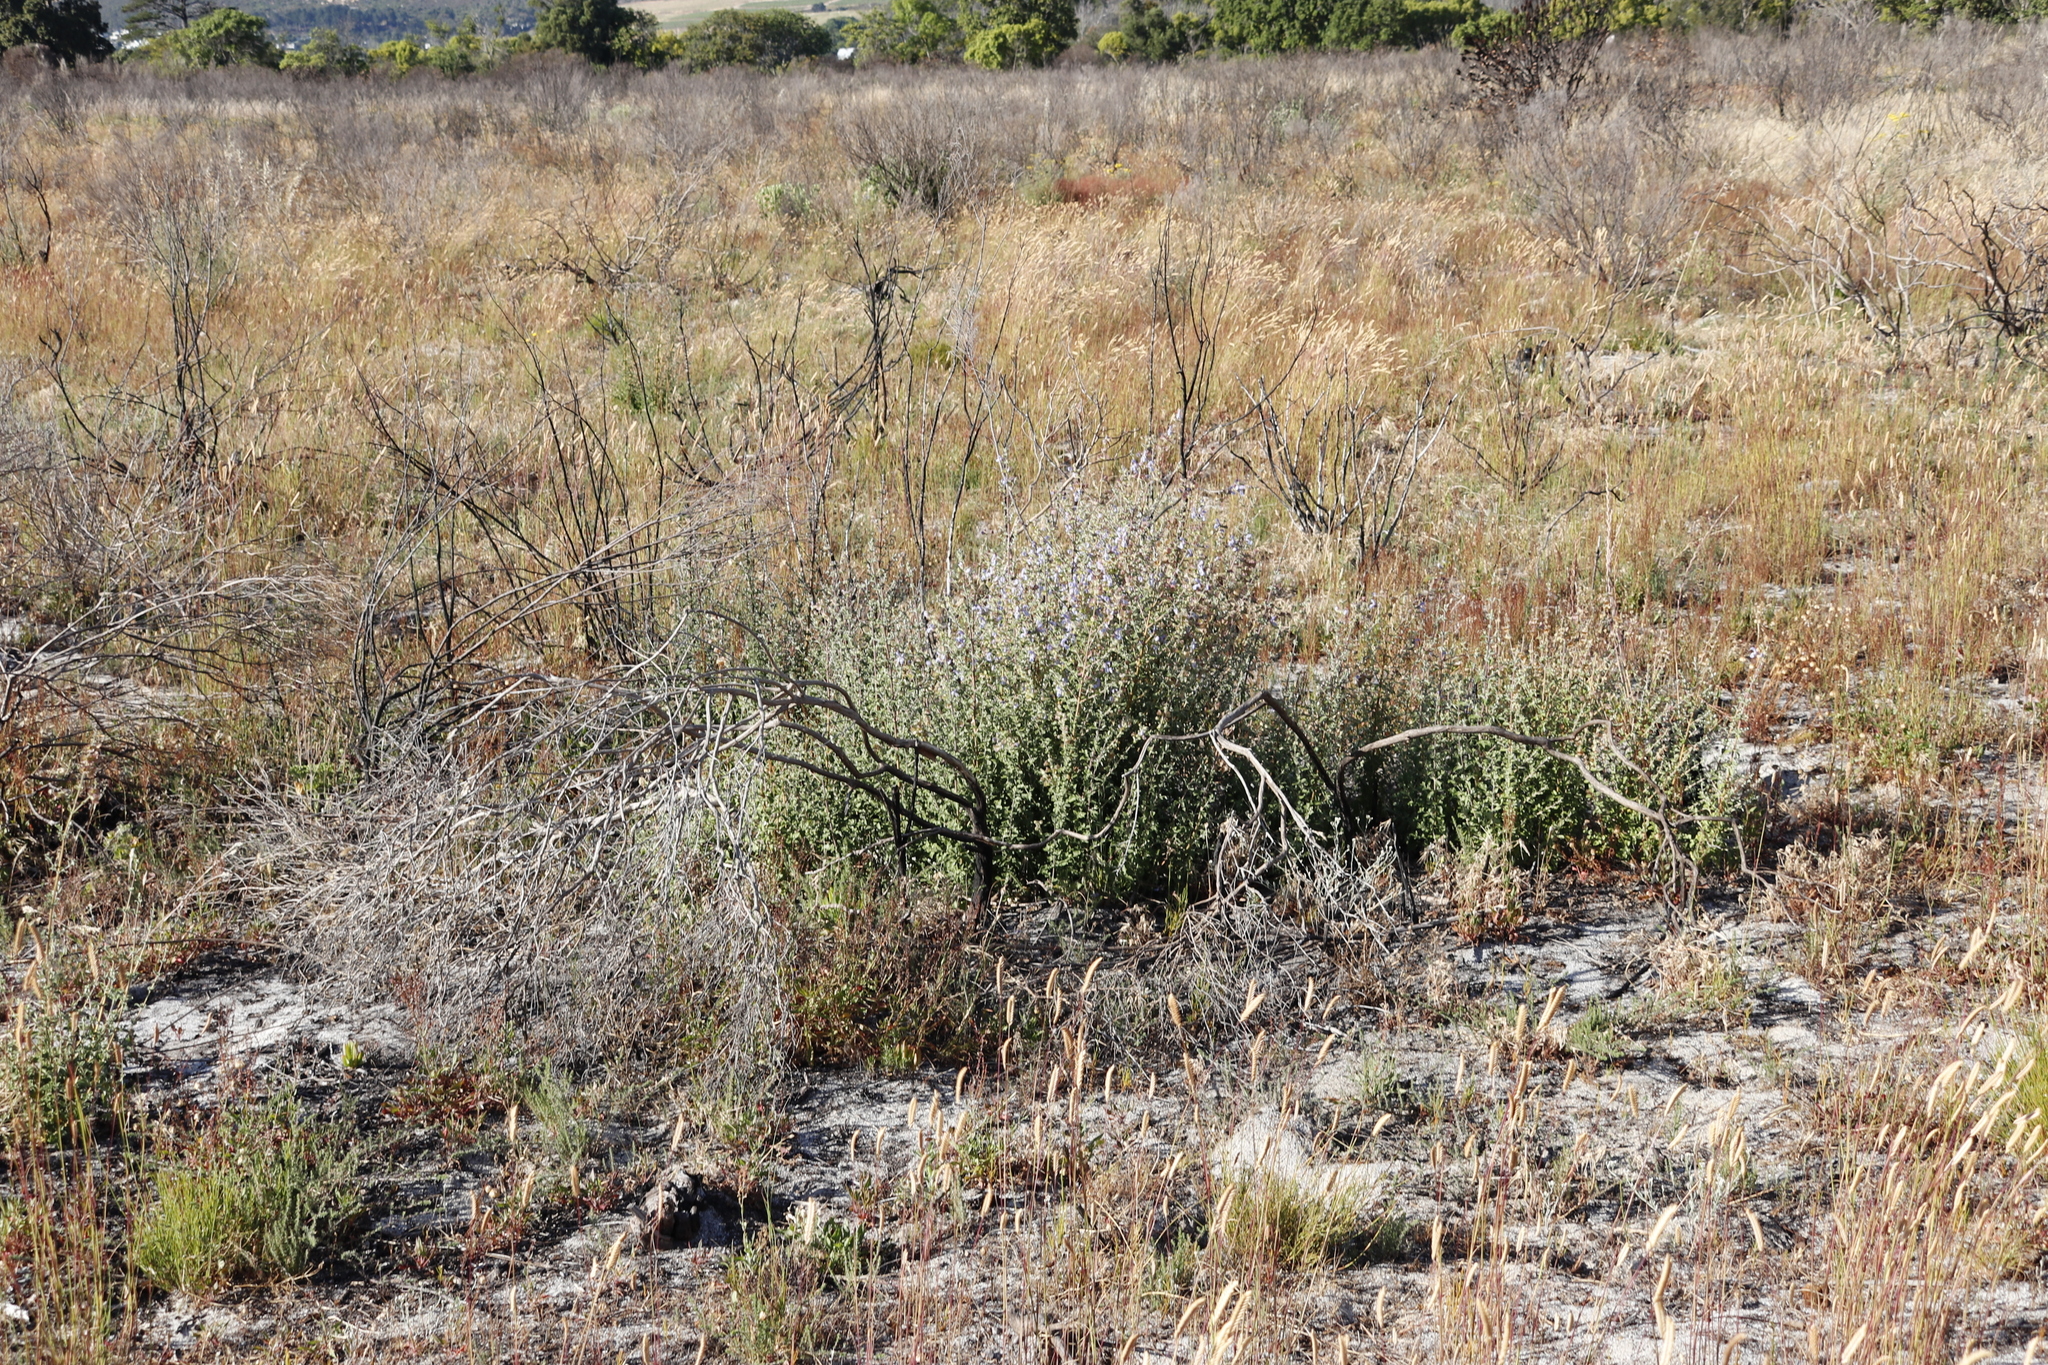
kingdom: Plantae
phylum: Tracheophyta
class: Magnoliopsida
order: Lamiales
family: Lamiaceae
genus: Salvia
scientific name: Salvia africana
